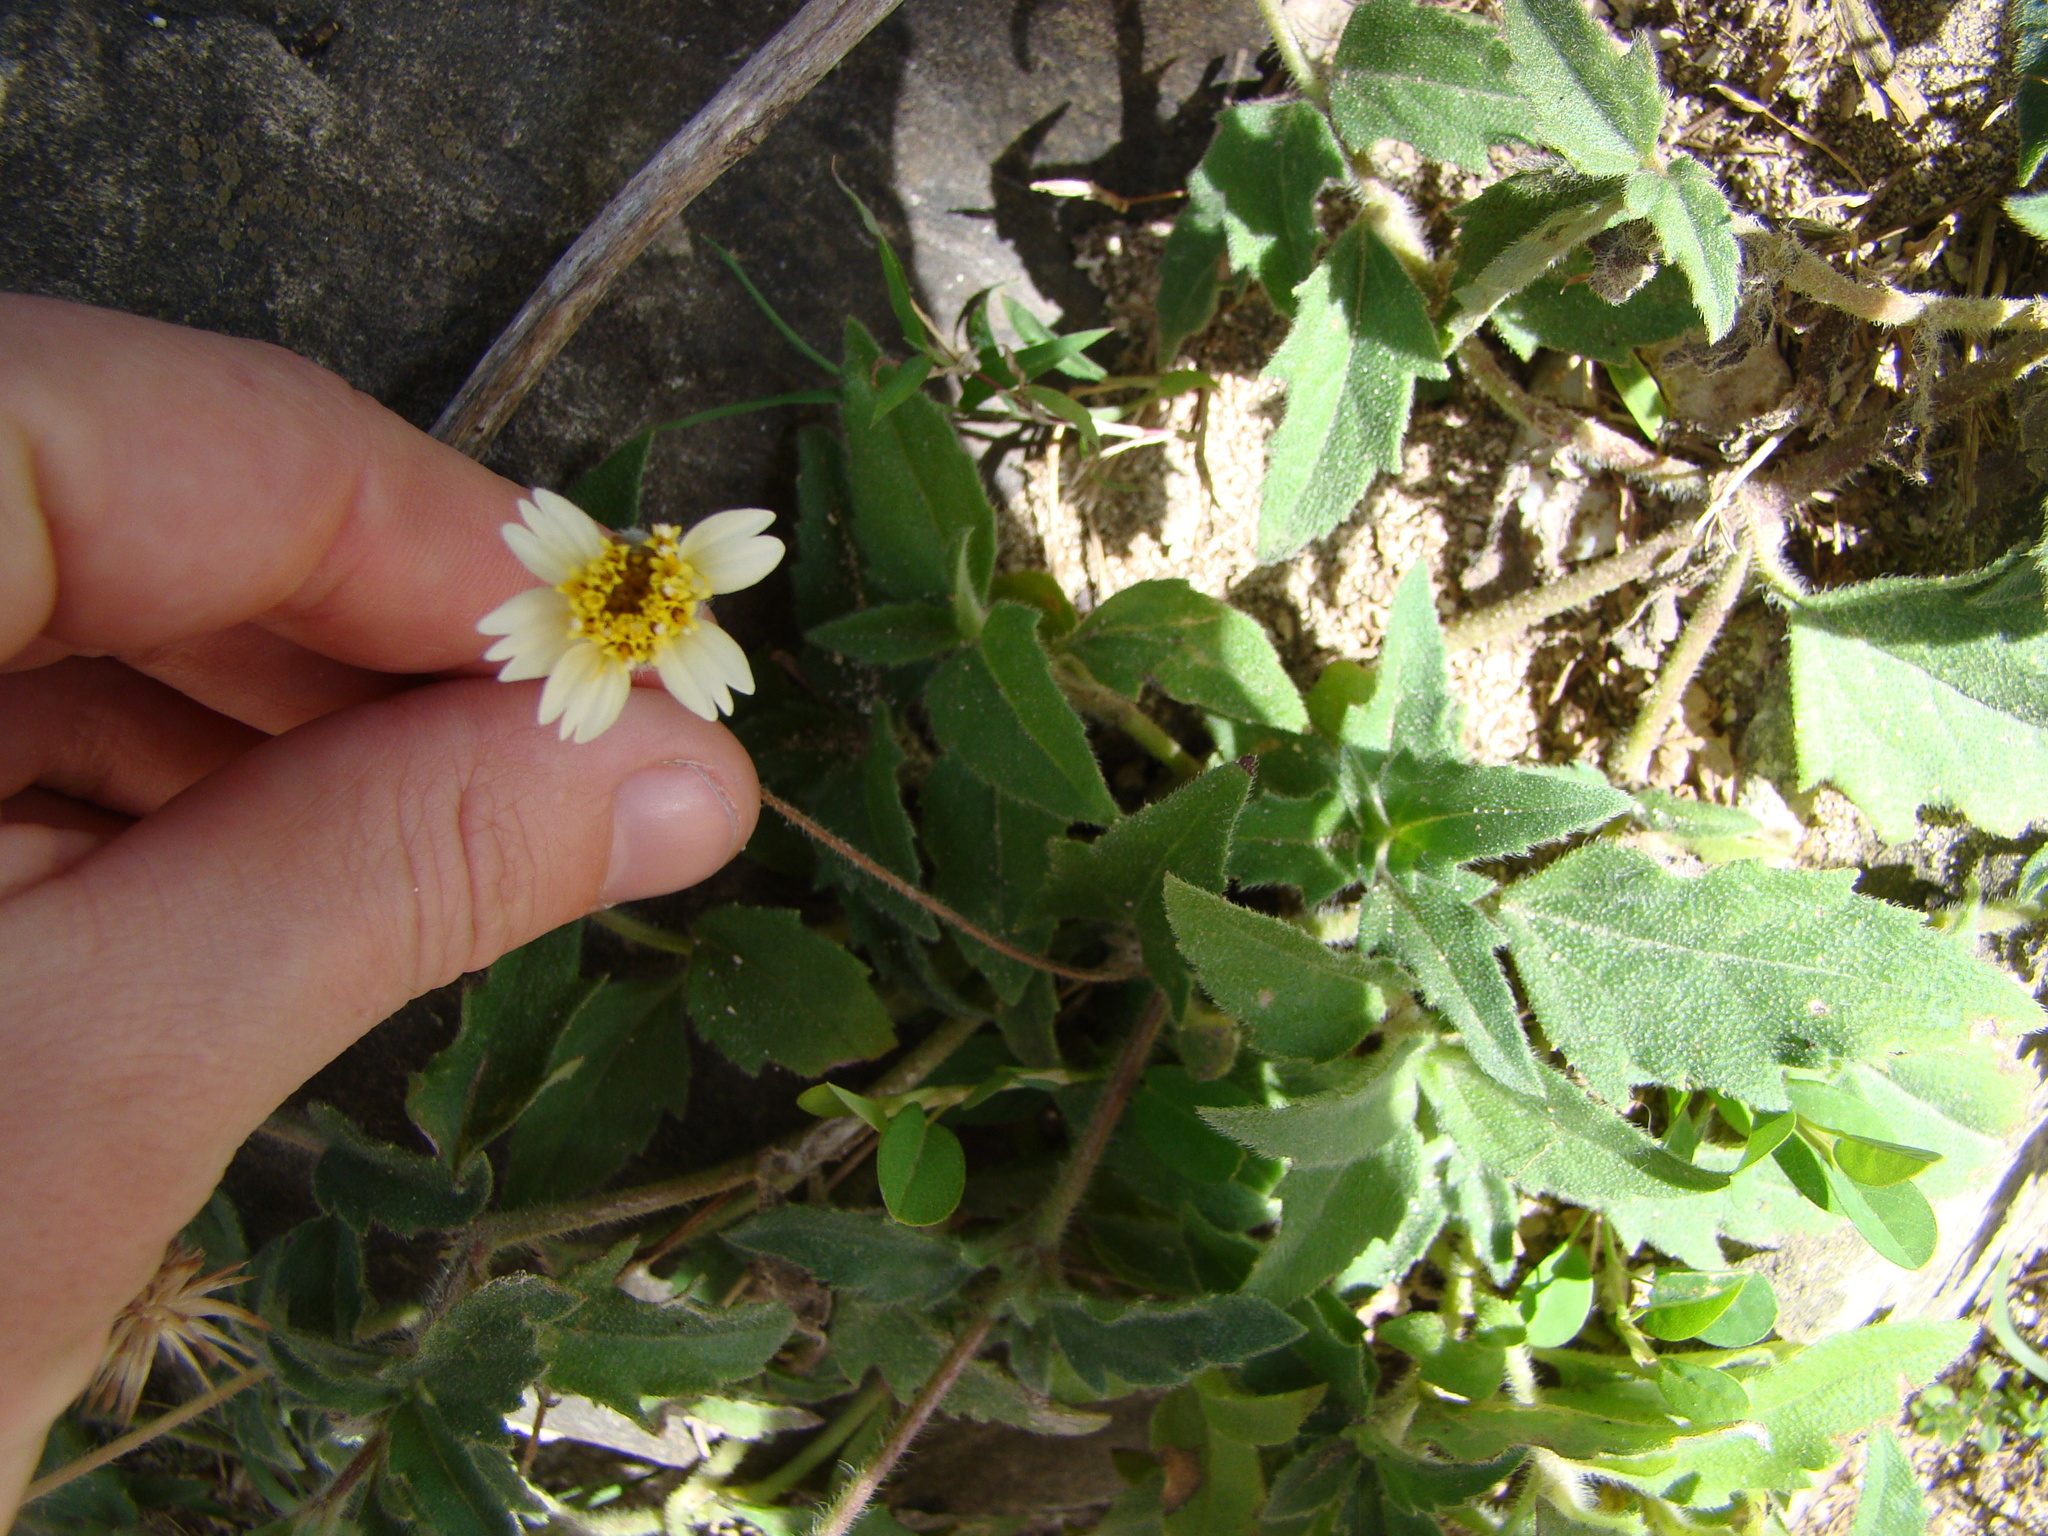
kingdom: Plantae
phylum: Tracheophyta
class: Magnoliopsida
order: Asterales
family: Asteraceae
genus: Tridax
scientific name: Tridax procumbens
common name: Coatbuttons
